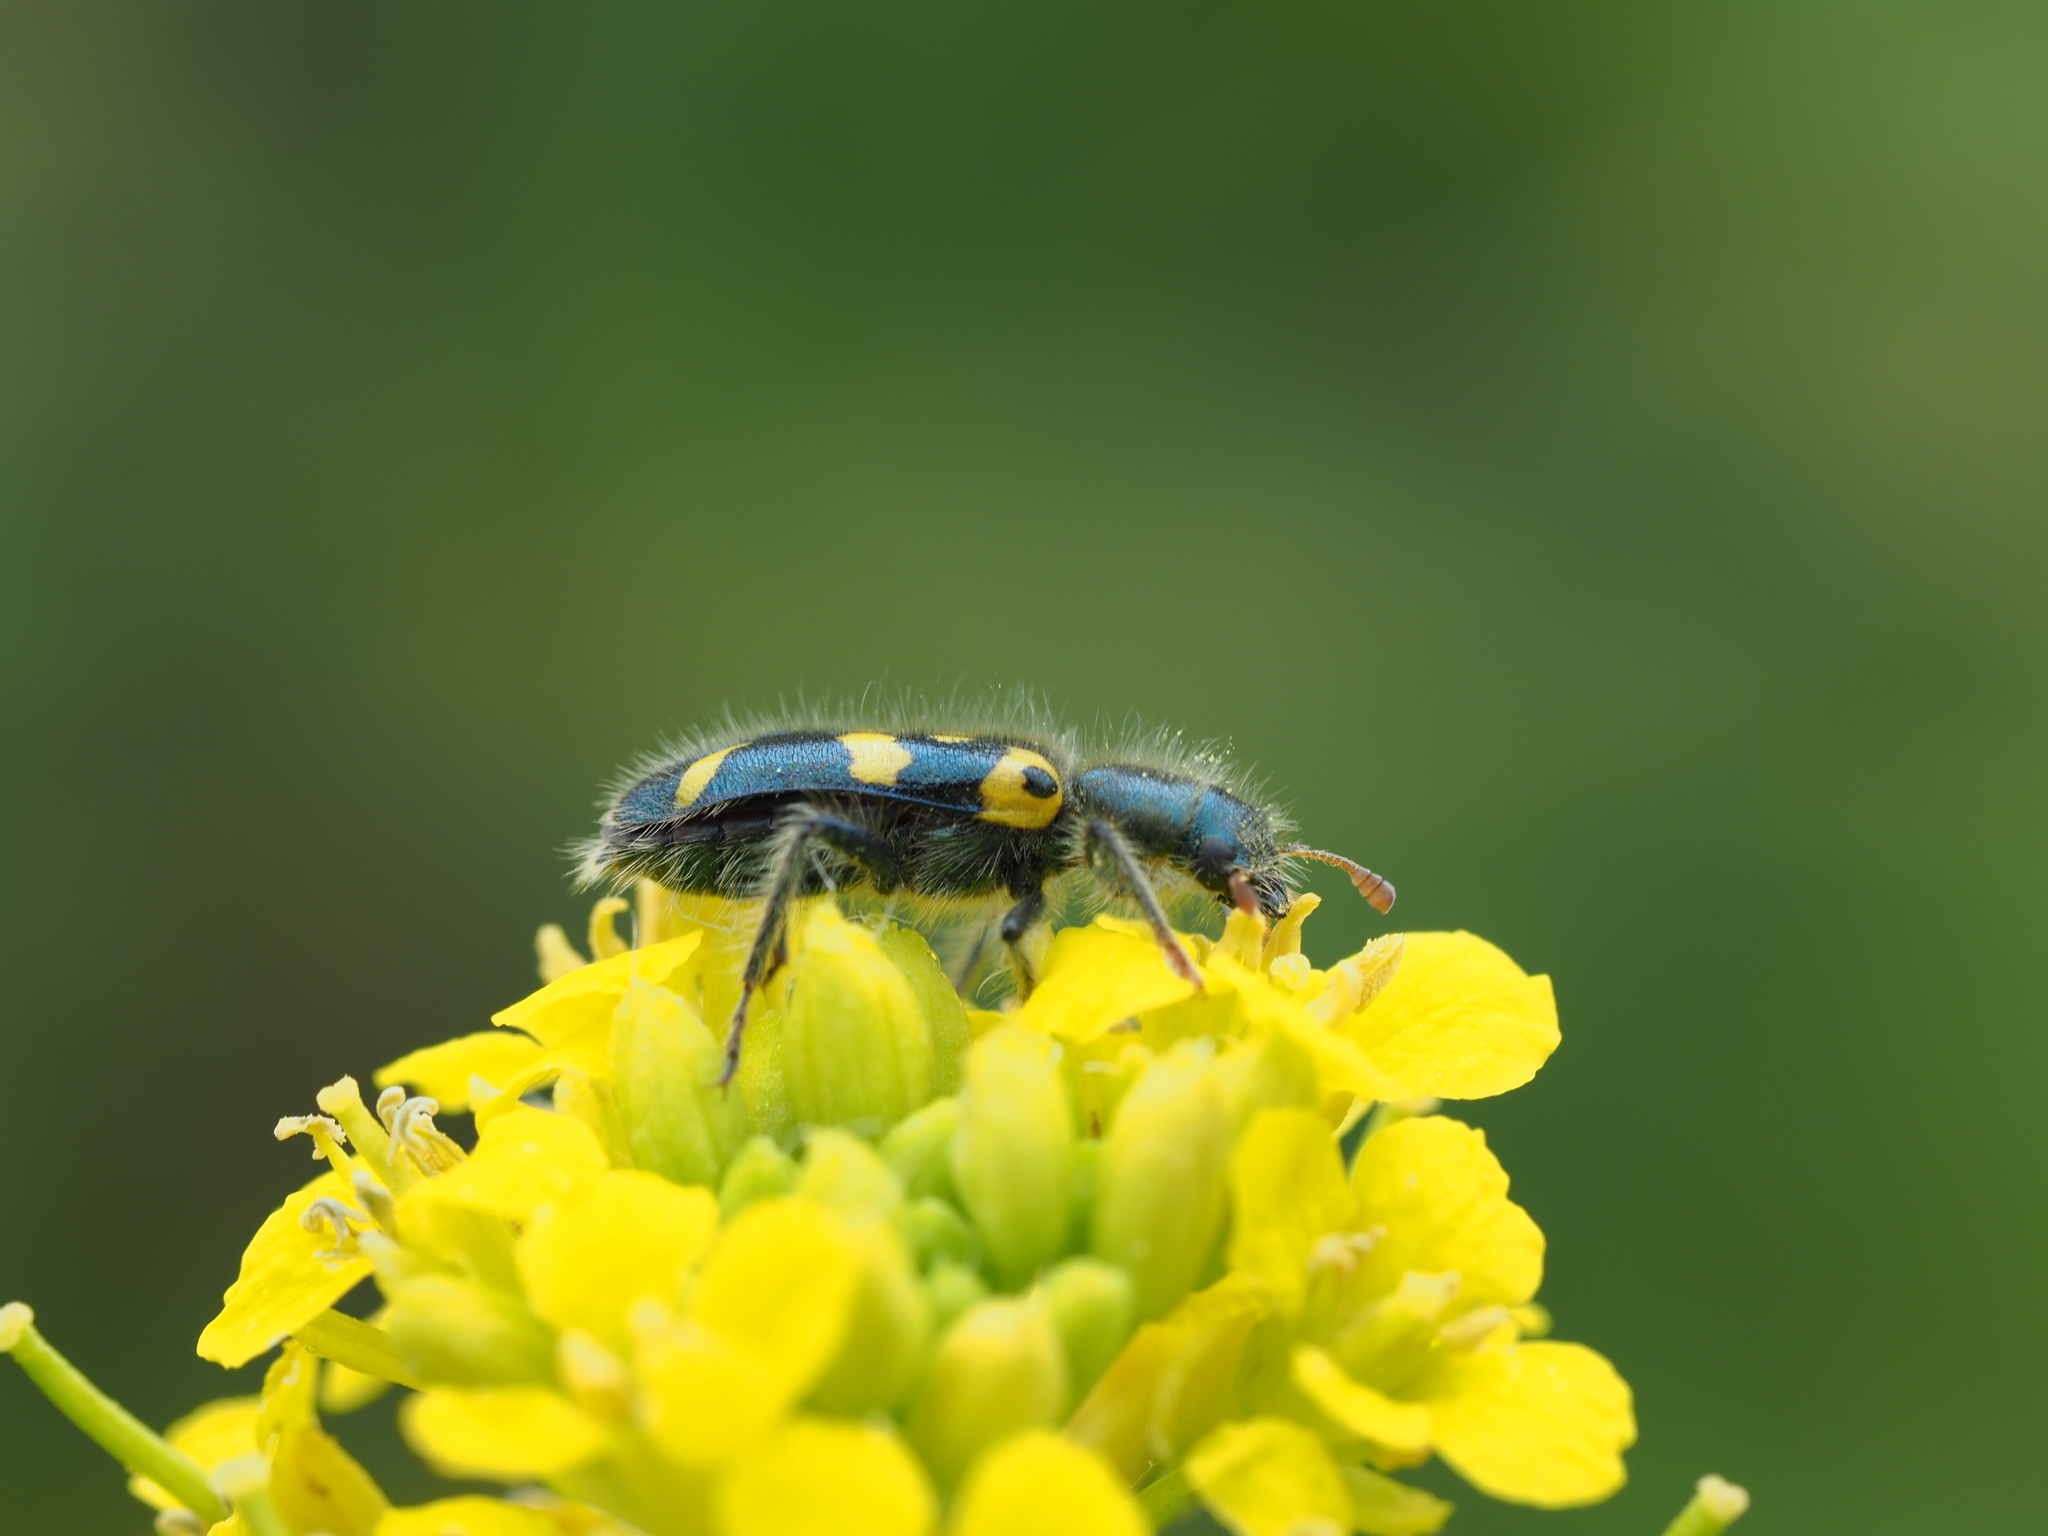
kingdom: Animalia
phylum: Arthropoda
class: Insecta
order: Coleoptera
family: Cleridae
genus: Trichodes
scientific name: Trichodes ornatus
